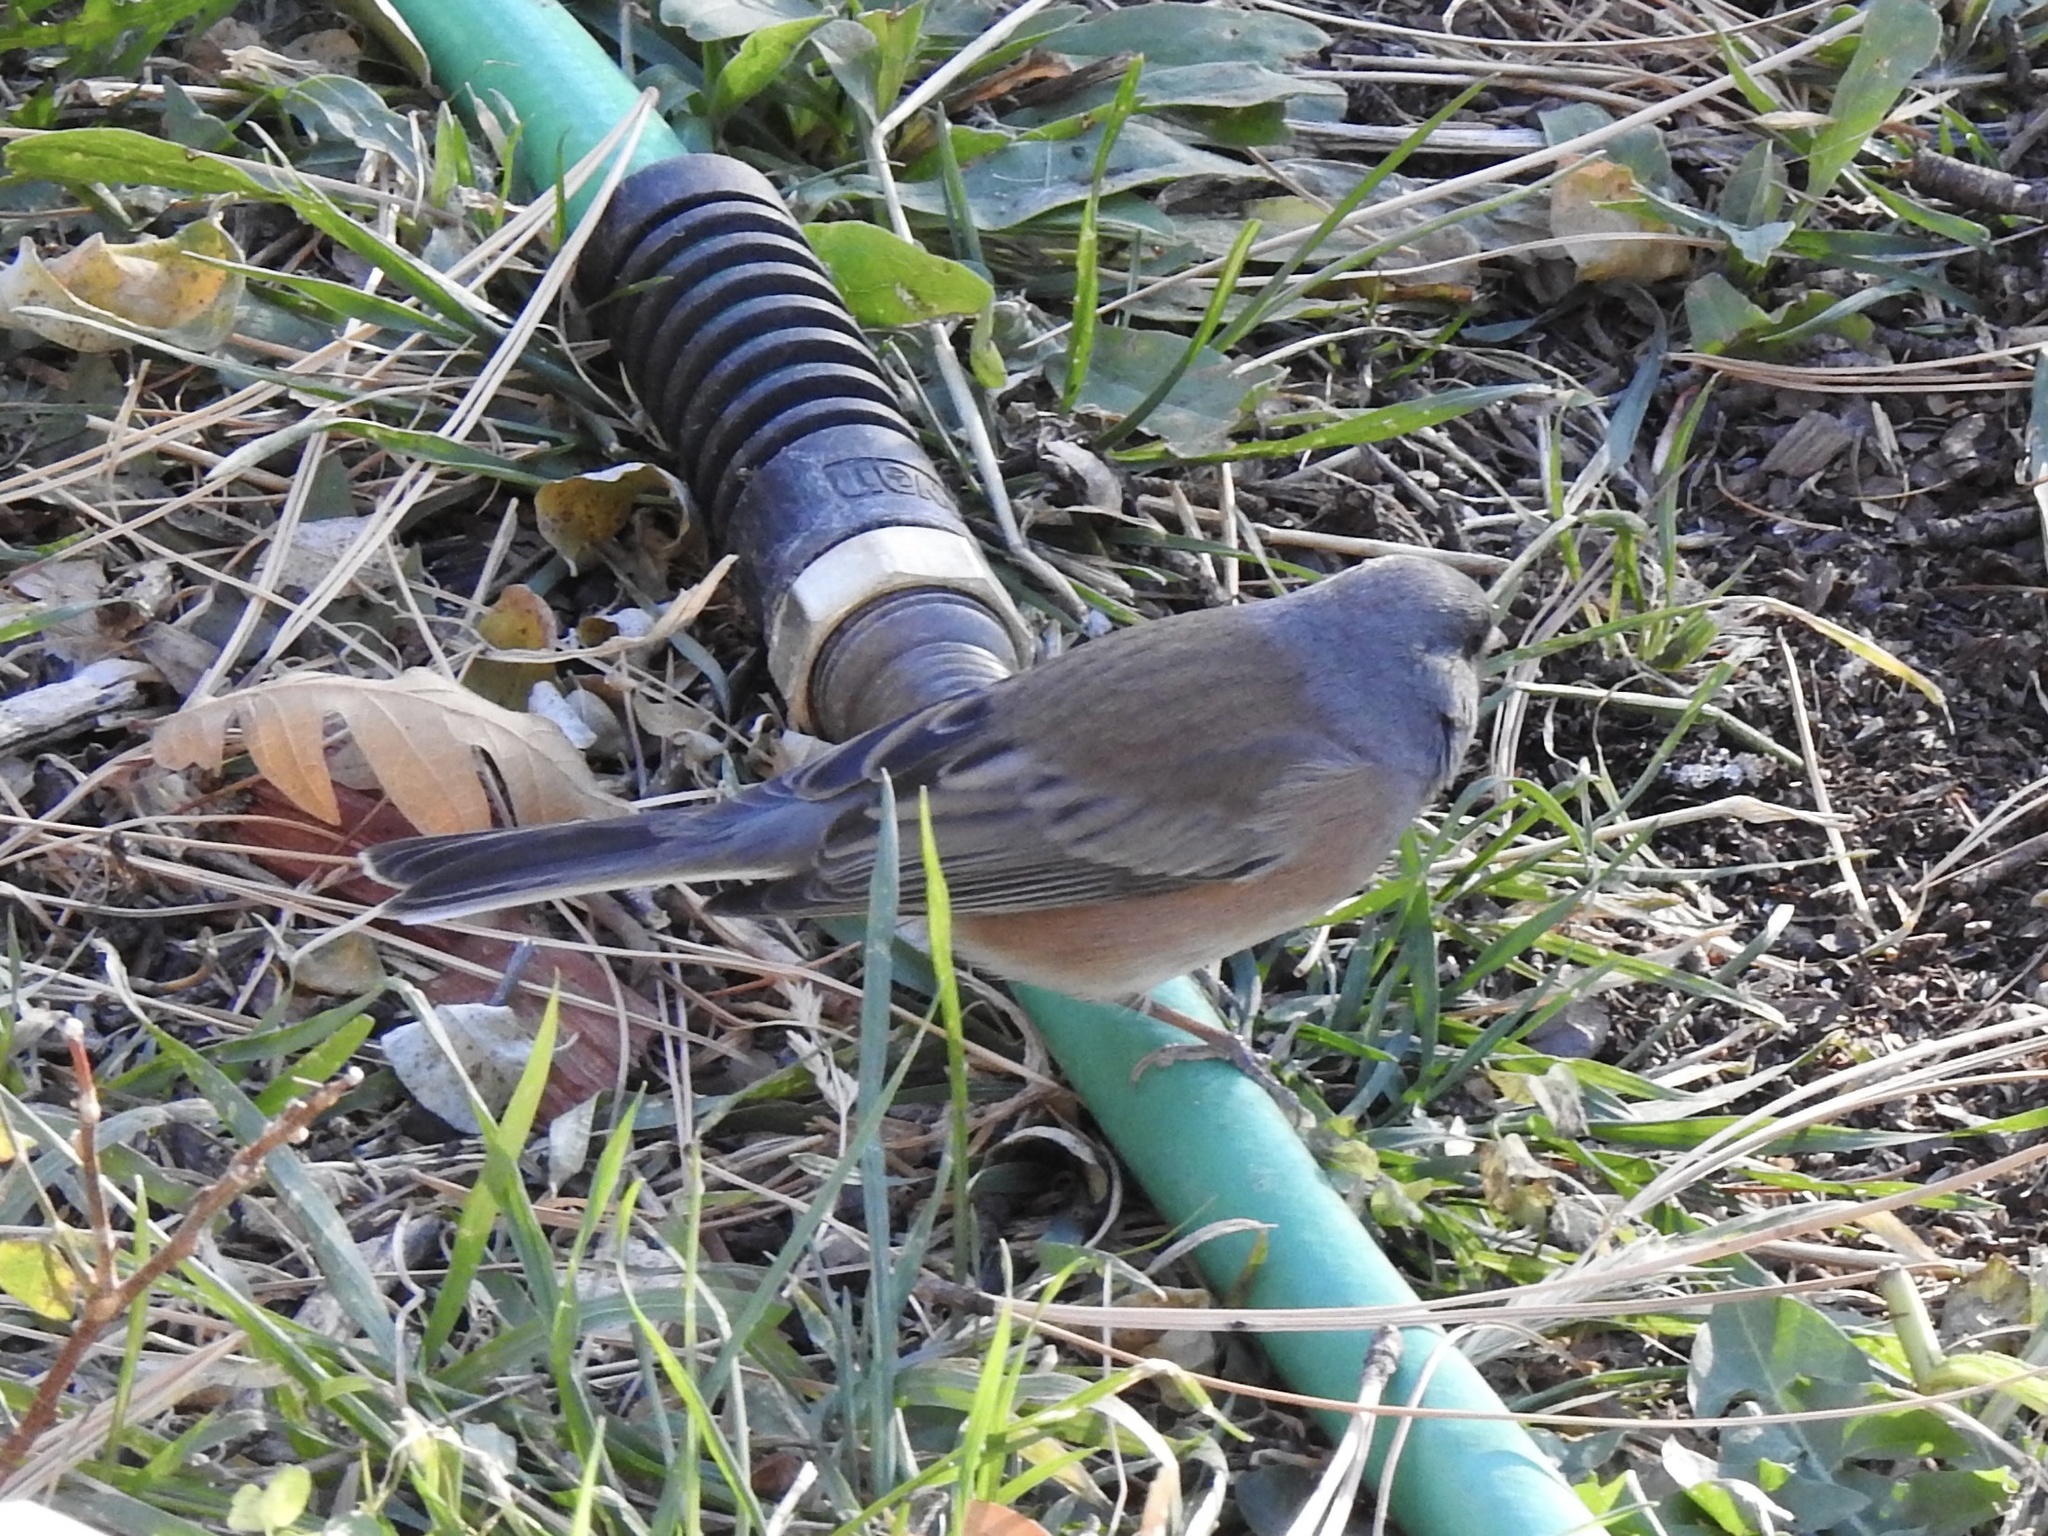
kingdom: Animalia
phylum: Chordata
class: Aves
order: Passeriformes
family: Passerellidae
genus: Junco
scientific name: Junco hyemalis
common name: Dark-eyed junco
